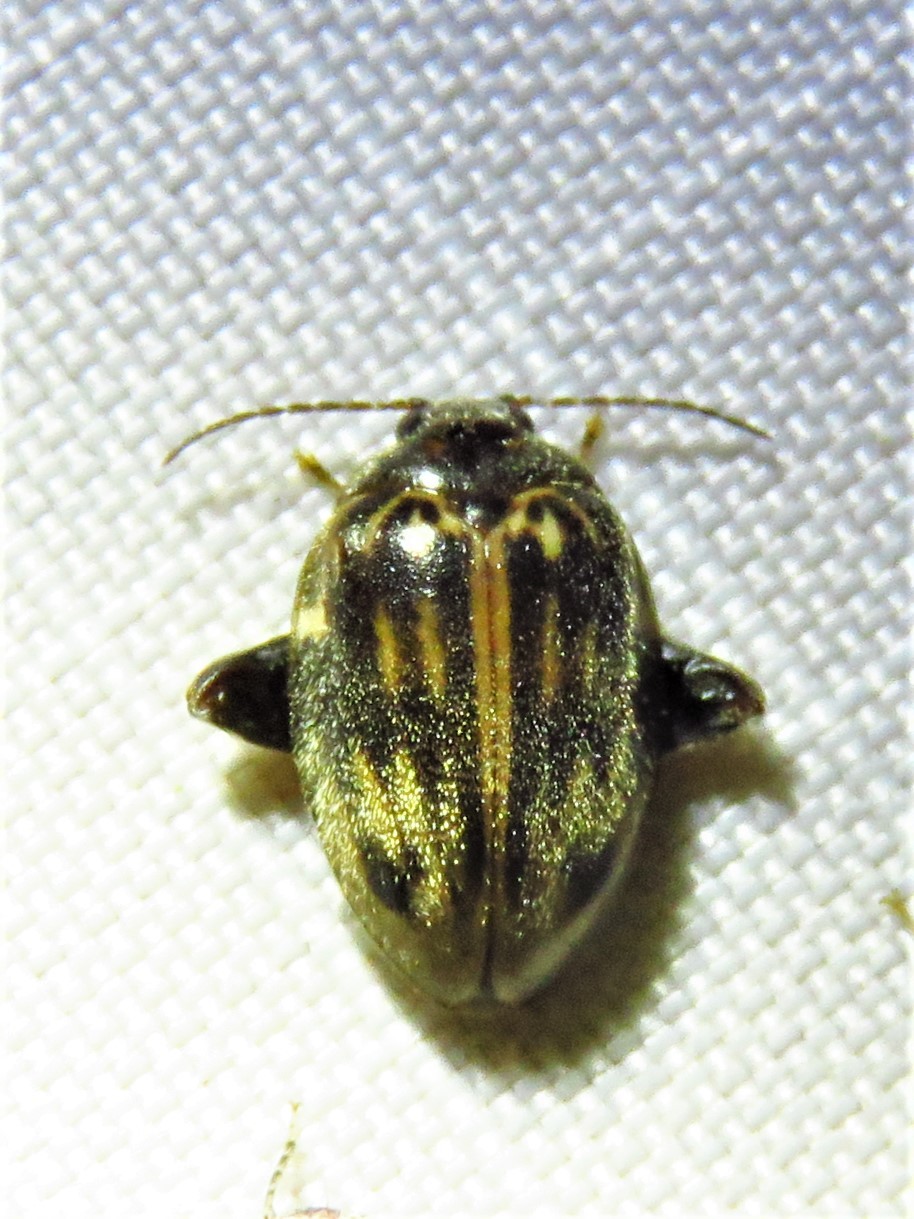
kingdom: Animalia
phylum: Arthropoda
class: Insecta
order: Coleoptera
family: Scirtidae
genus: Ora
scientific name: Ora texana
